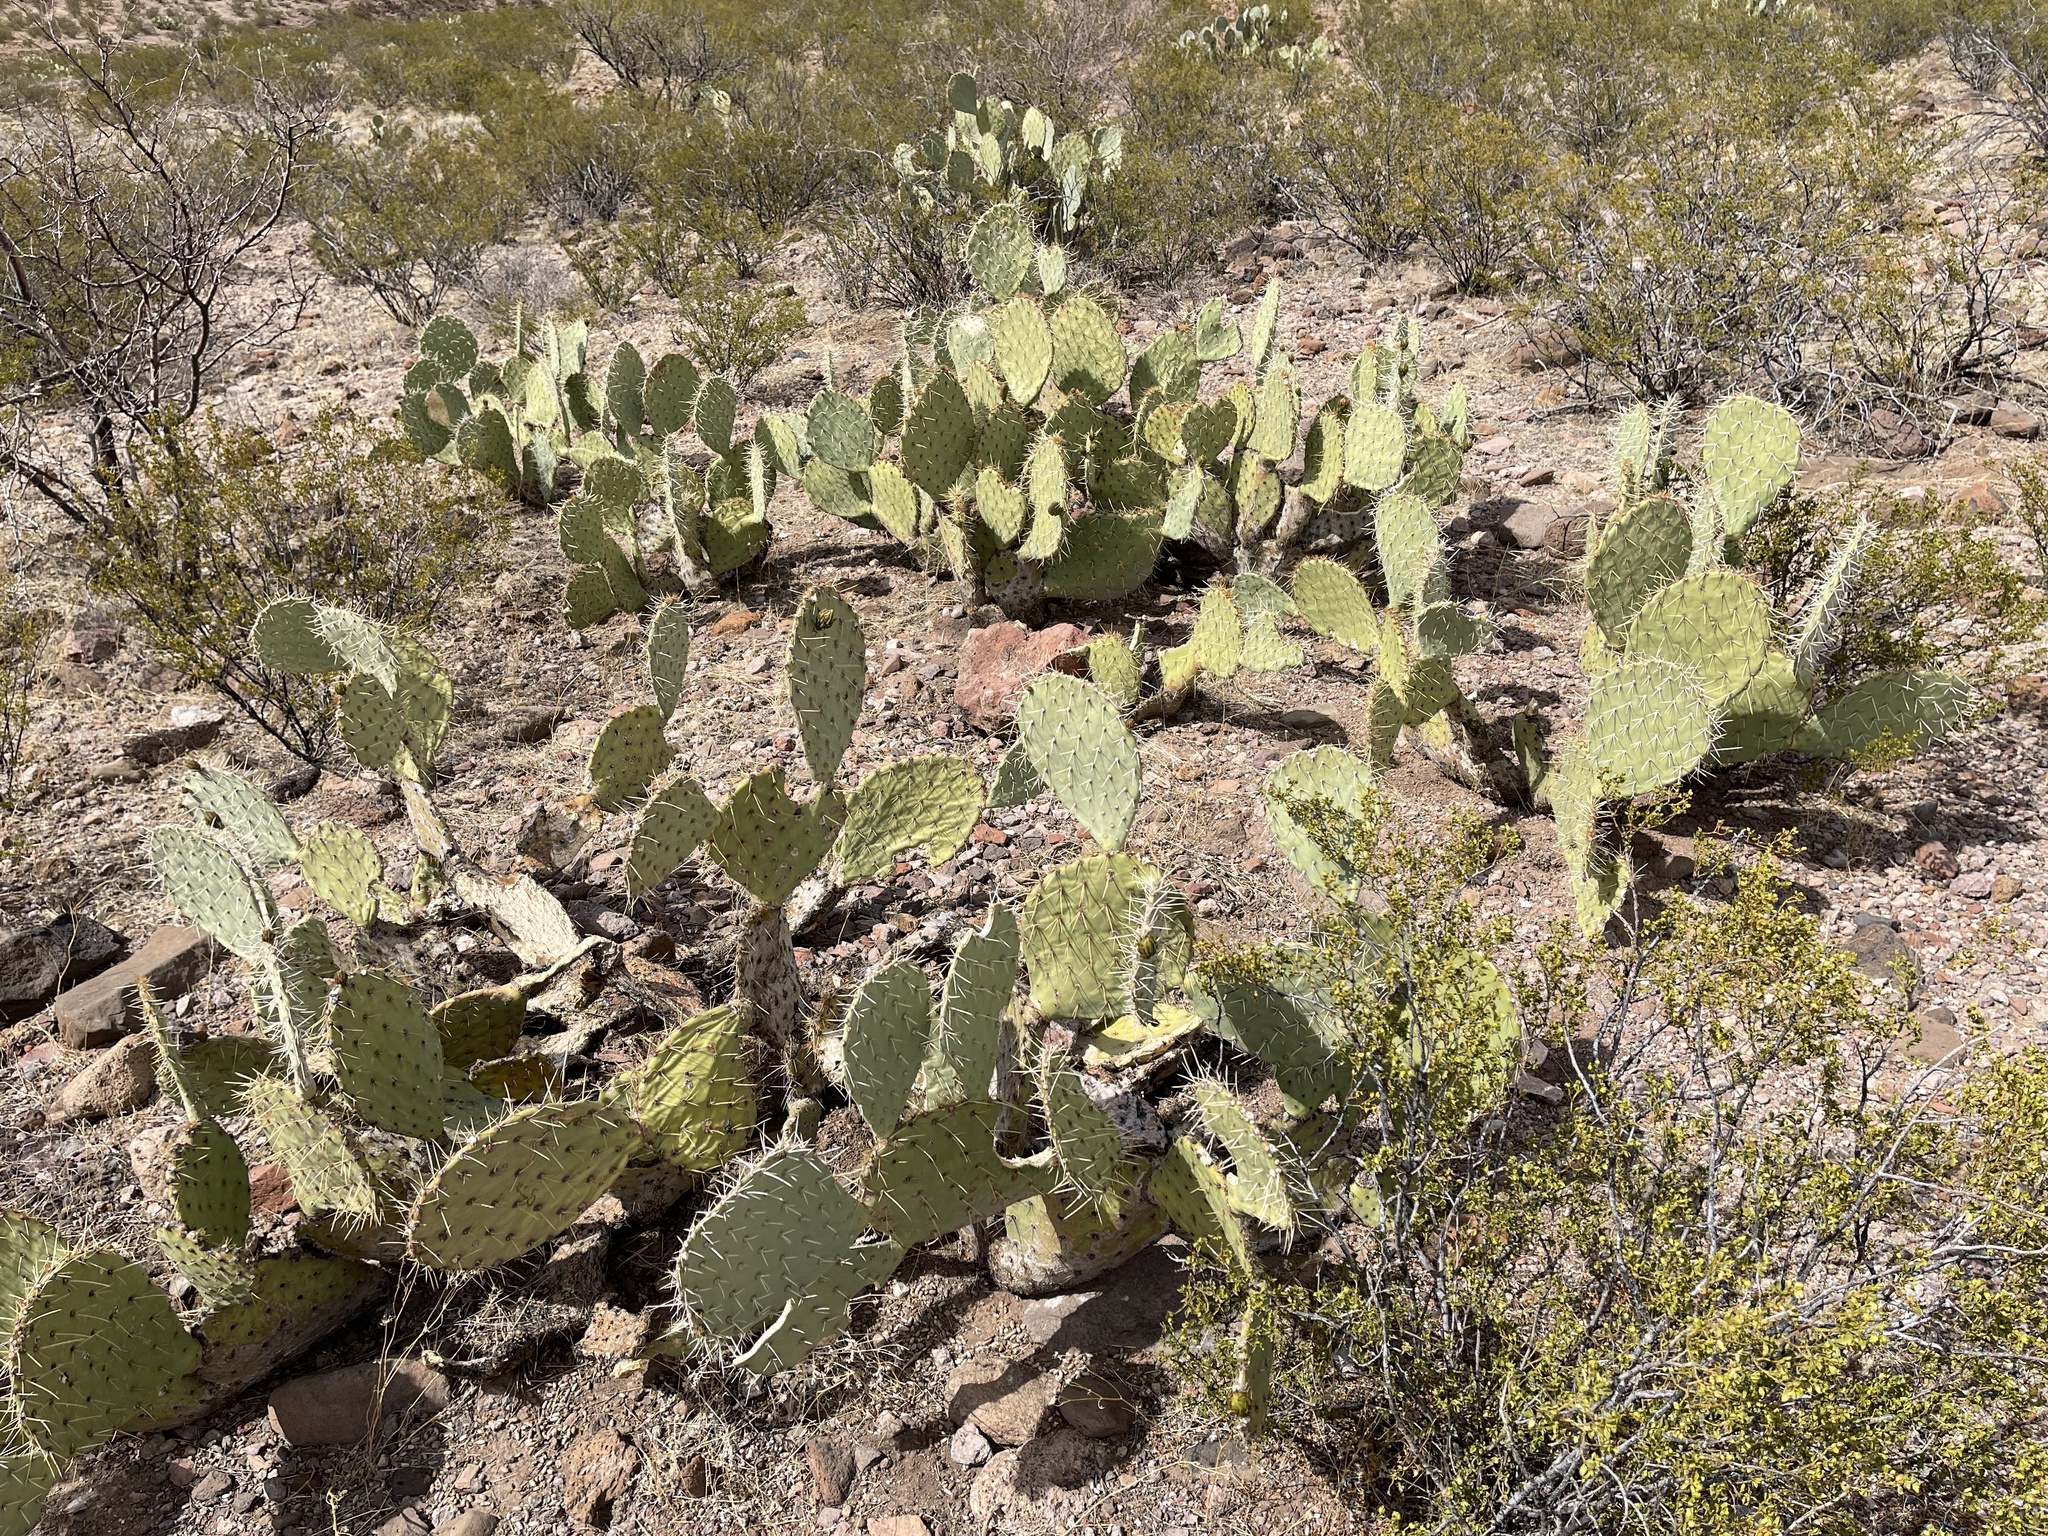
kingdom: Plantae
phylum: Tracheophyta
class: Magnoliopsida
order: Caryophyllales
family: Cactaceae
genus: Opuntia
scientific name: Opuntia engelmannii
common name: Cactus-apple
